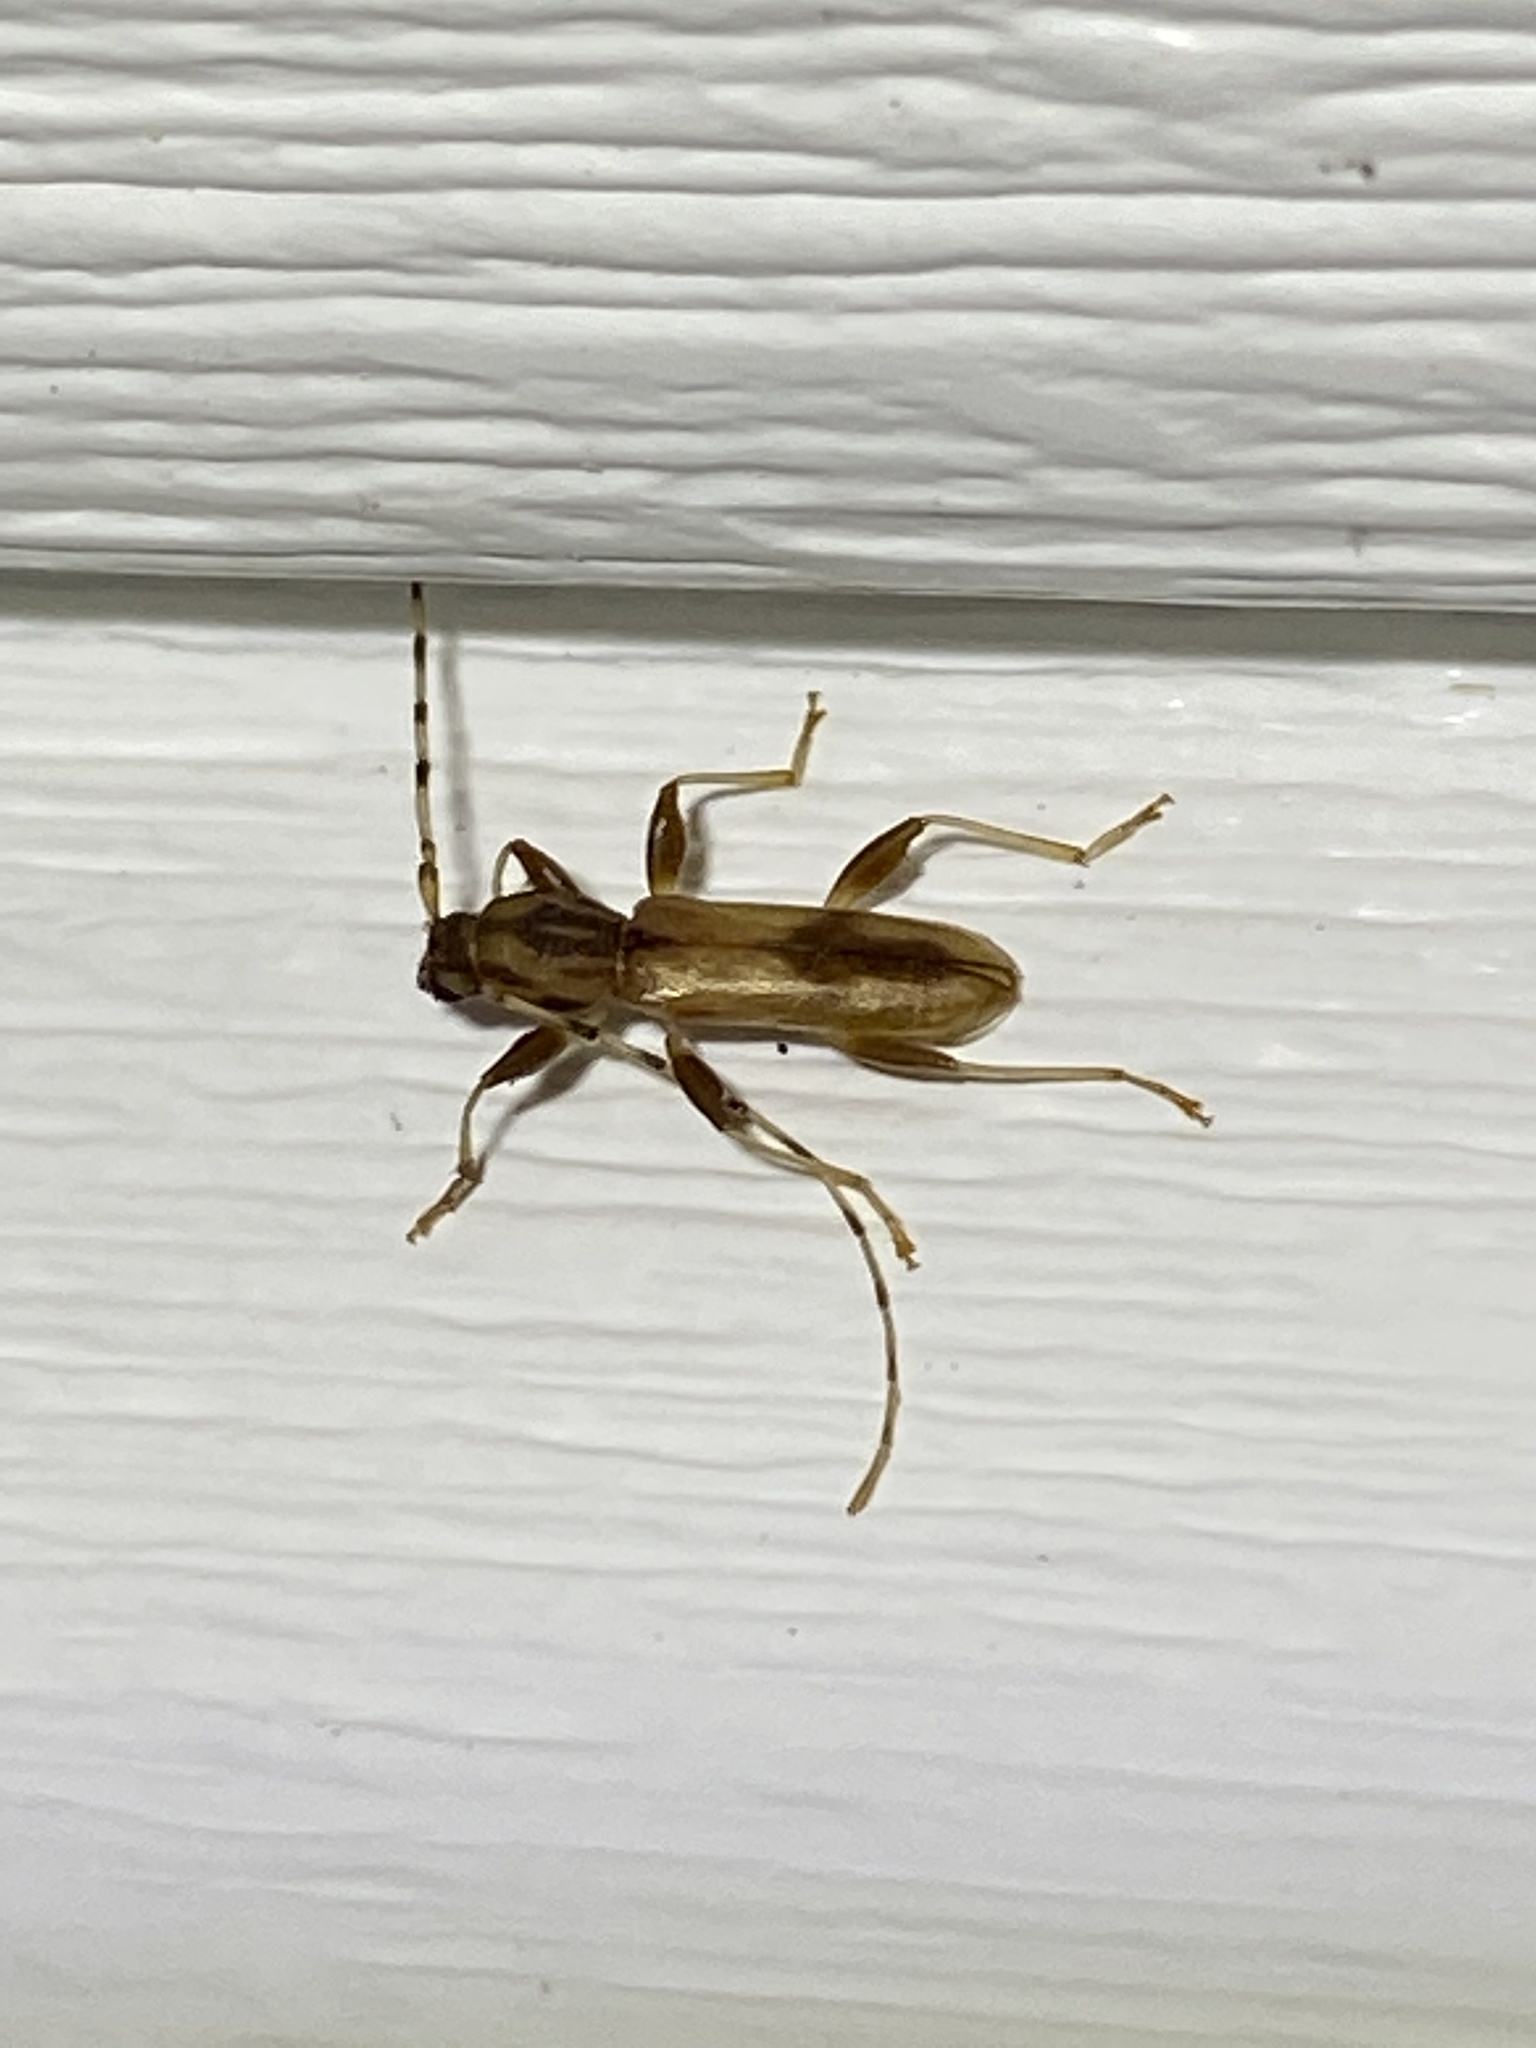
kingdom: Animalia
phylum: Arthropoda
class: Insecta
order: Coleoptera
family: Cerambycidae
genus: Curius
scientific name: Curius dentatus
